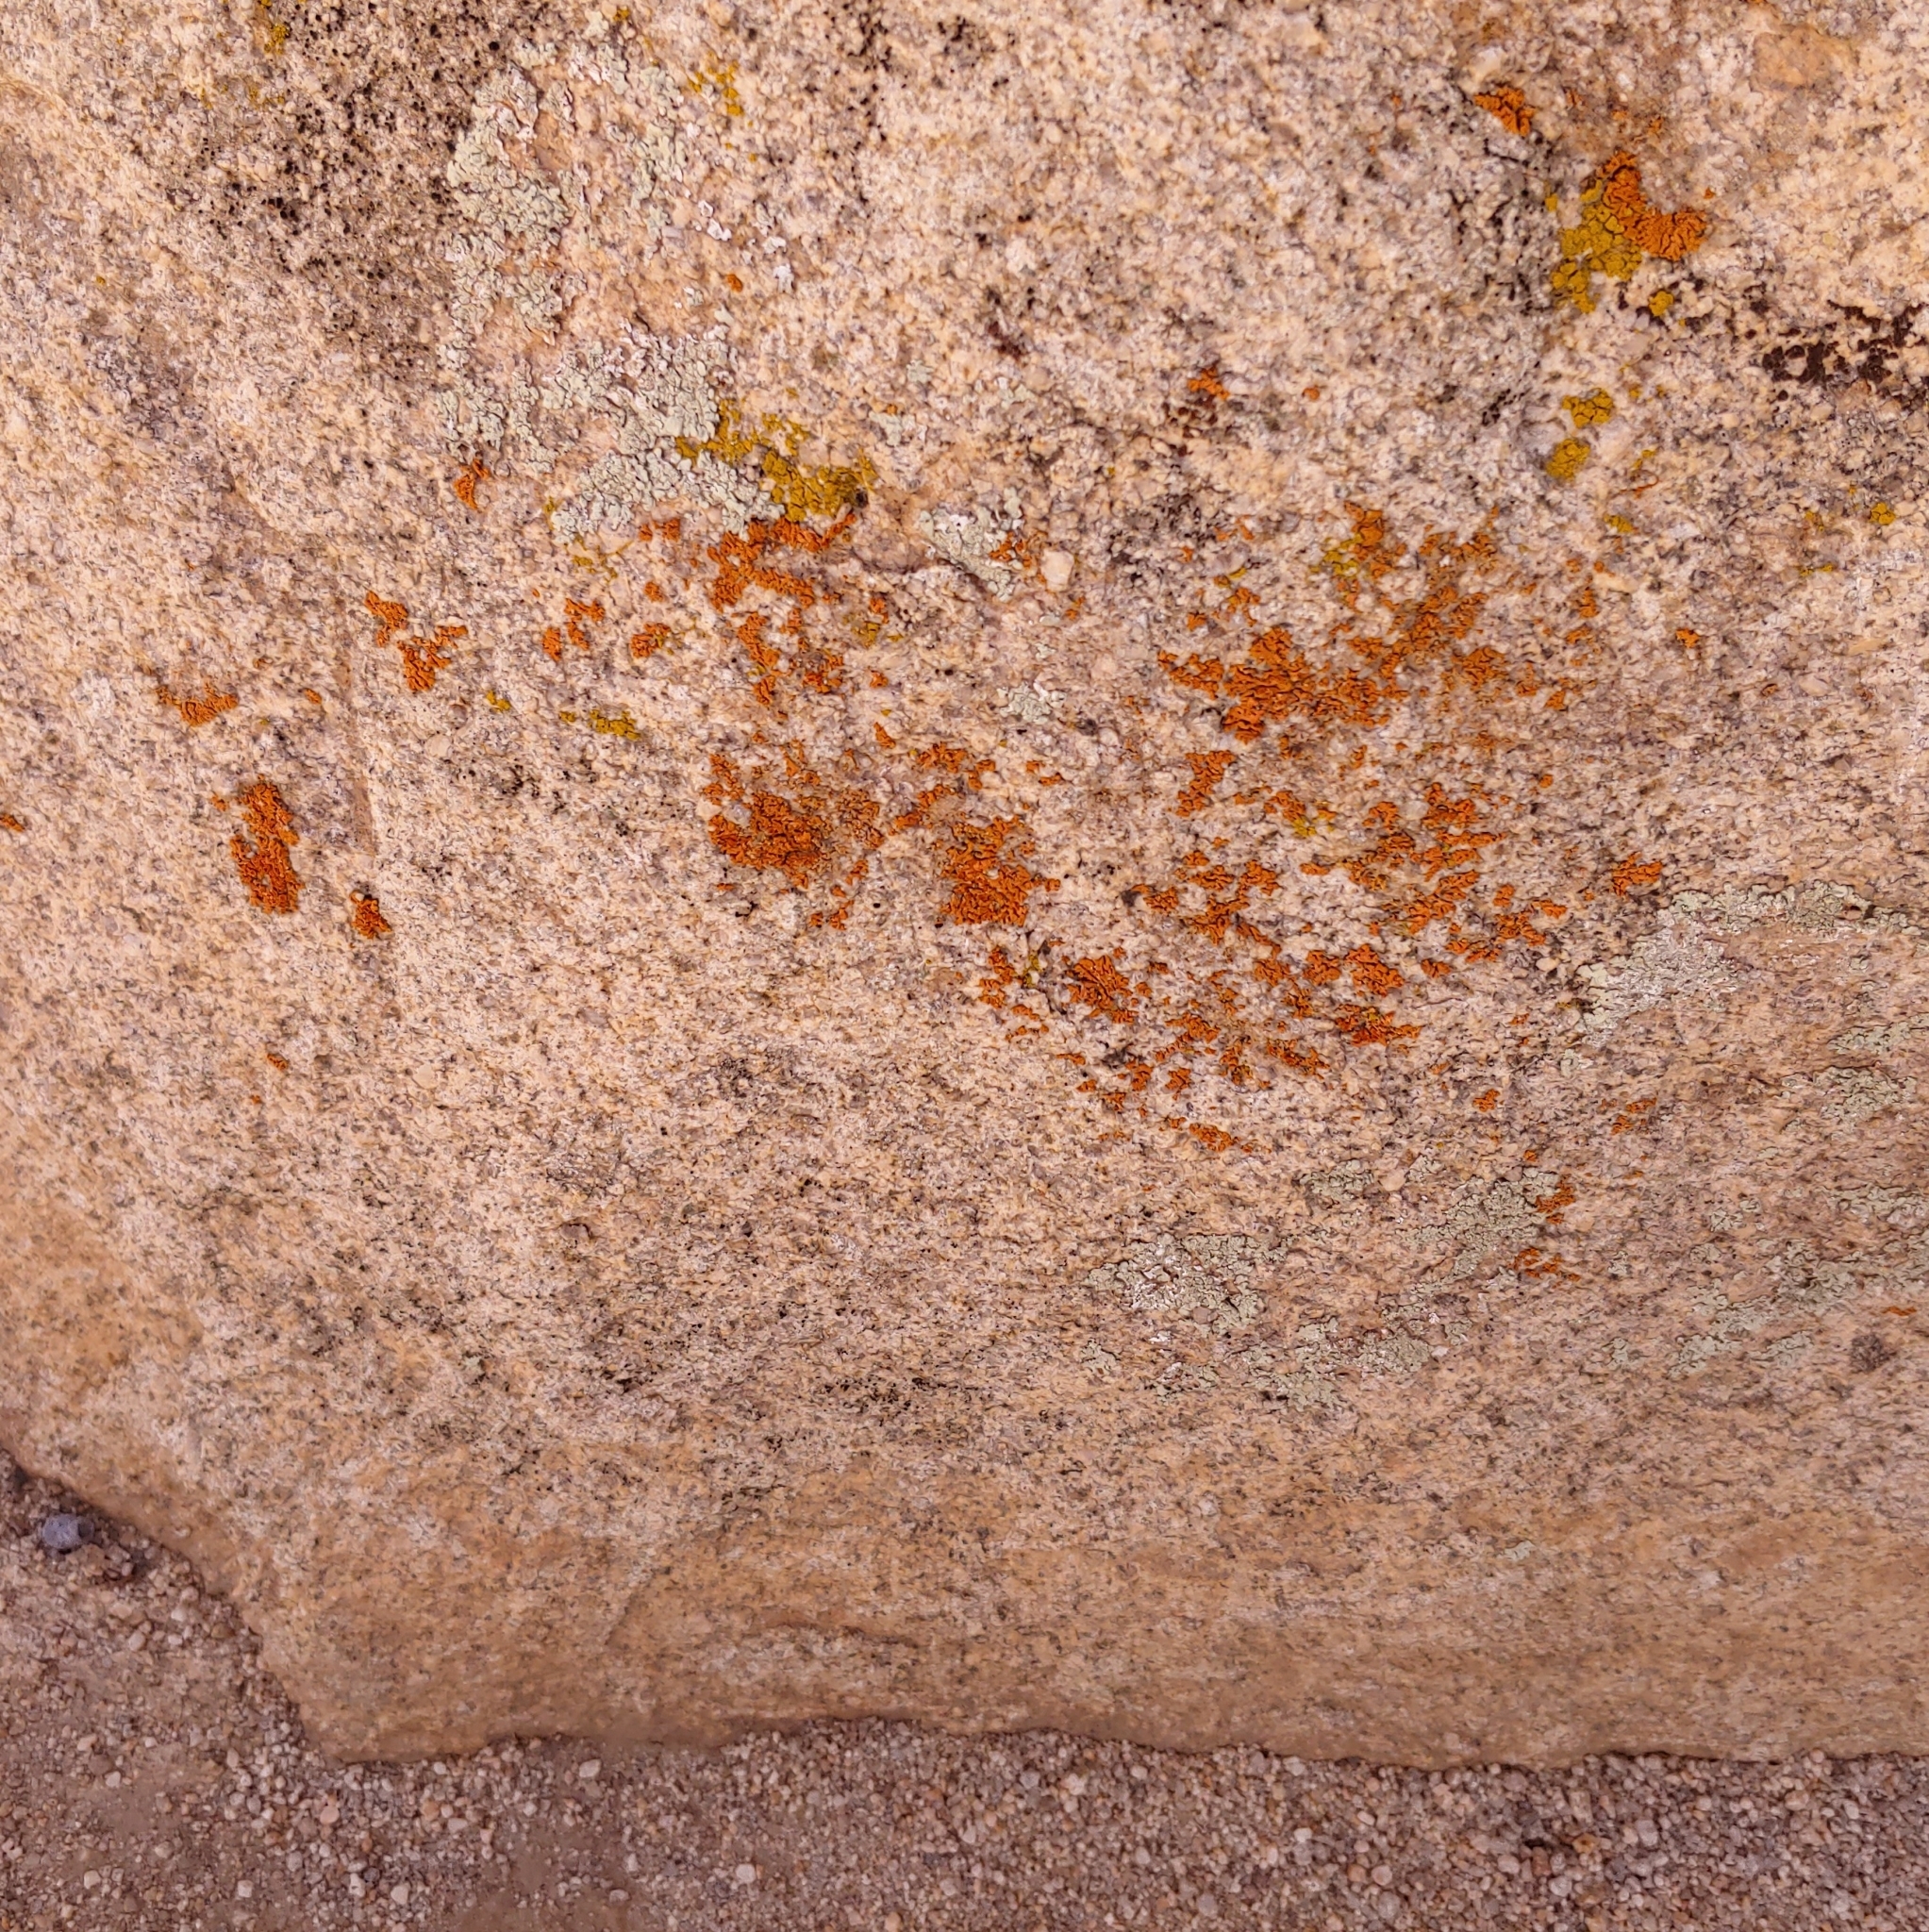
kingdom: Fungi
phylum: Ascomycota
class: Lecanoromycetes
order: Teloschistales
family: Teloschistaceae
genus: Xanthoria
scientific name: Xanthoria elegans
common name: Elegant sunburst lichen
